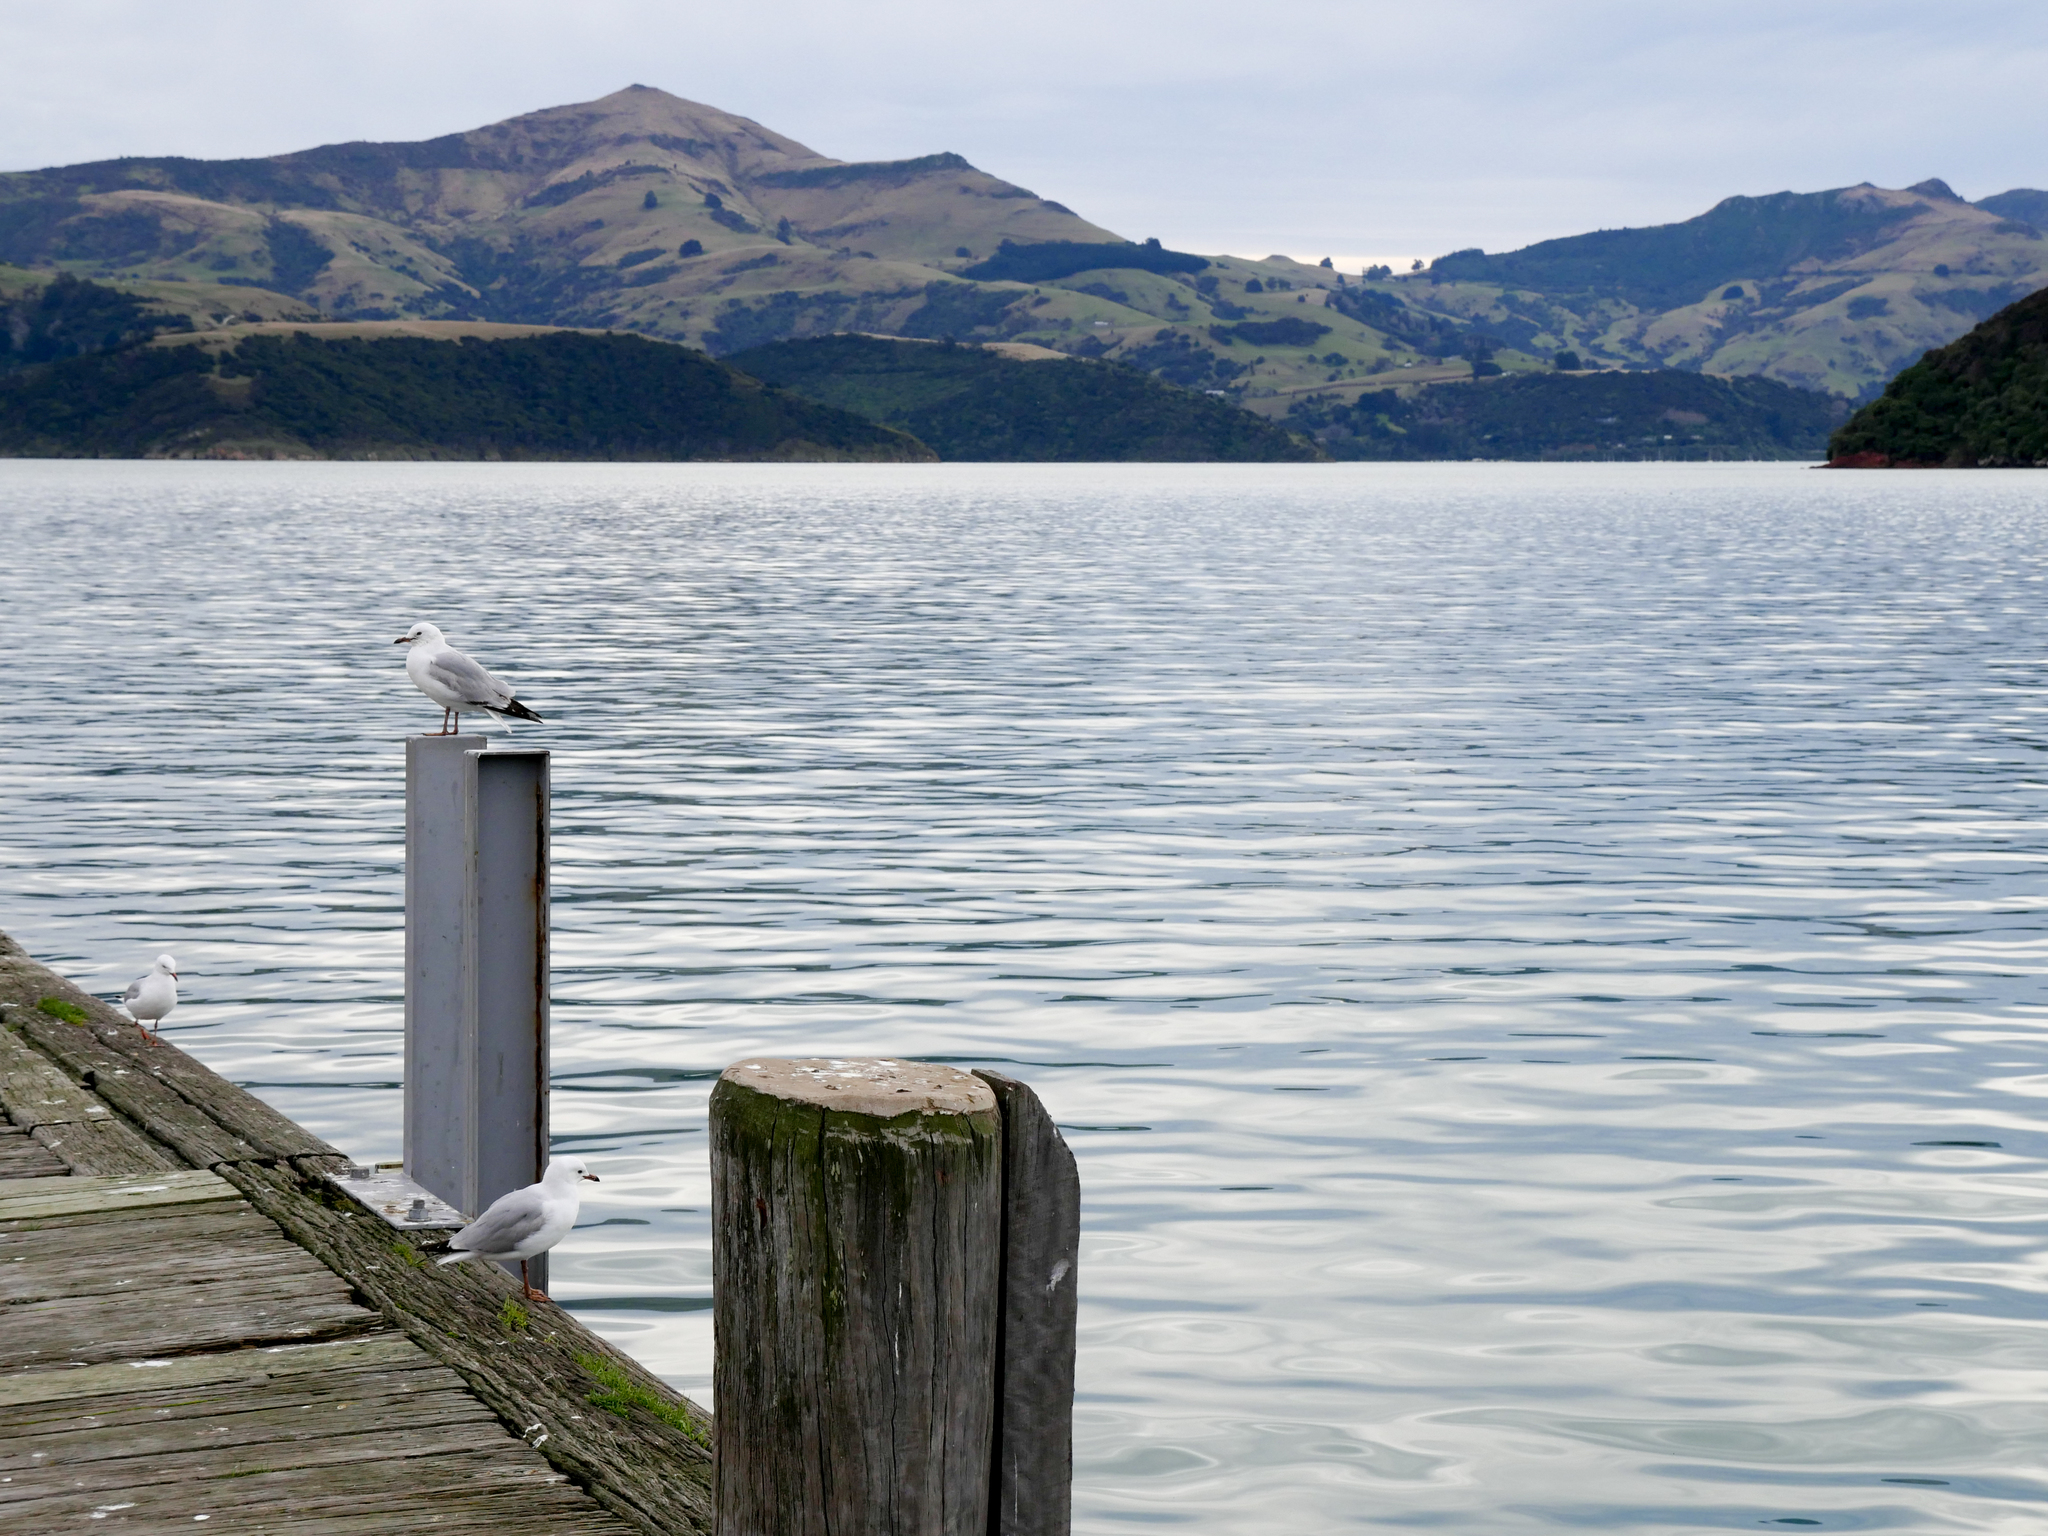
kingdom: Animalia
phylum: Chordata
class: Aves
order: Charadriiformes
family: Laridae
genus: Chroicocephalus
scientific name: Chroicocephalus novaehollandiae
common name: Silver gull
